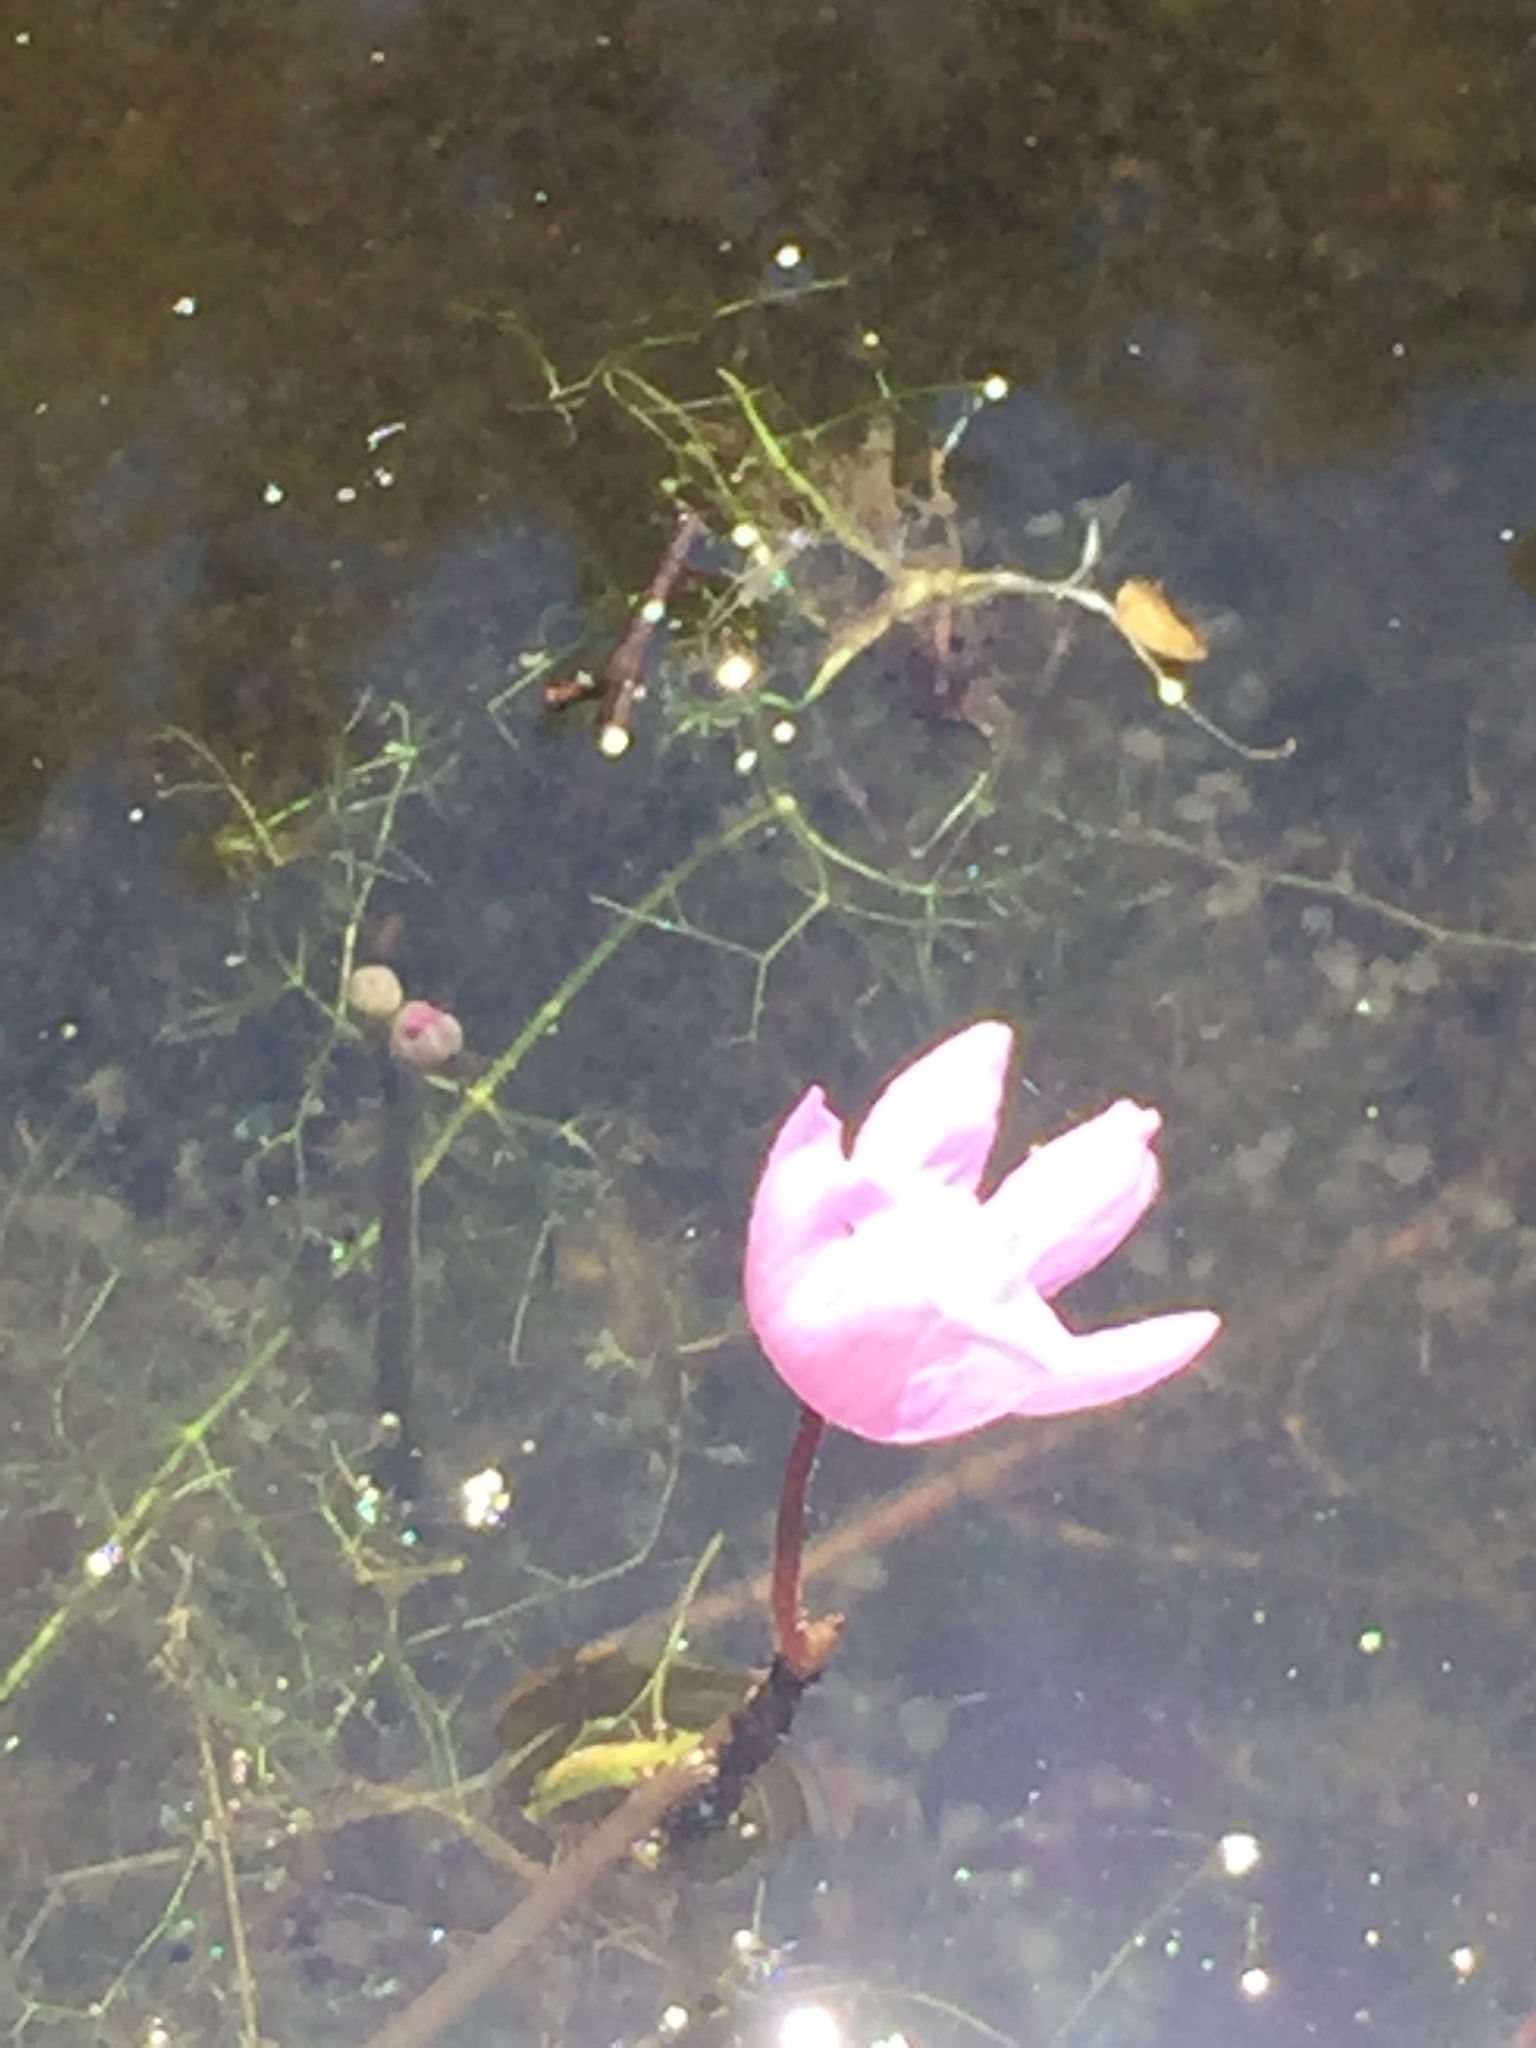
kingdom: Plantae
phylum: Tracheophyta
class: Magnoliopsida
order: Lamiales
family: Lentibulariaceae
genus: Utricularia
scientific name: Utricularia purpurea
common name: Eastern purple bladderwort
